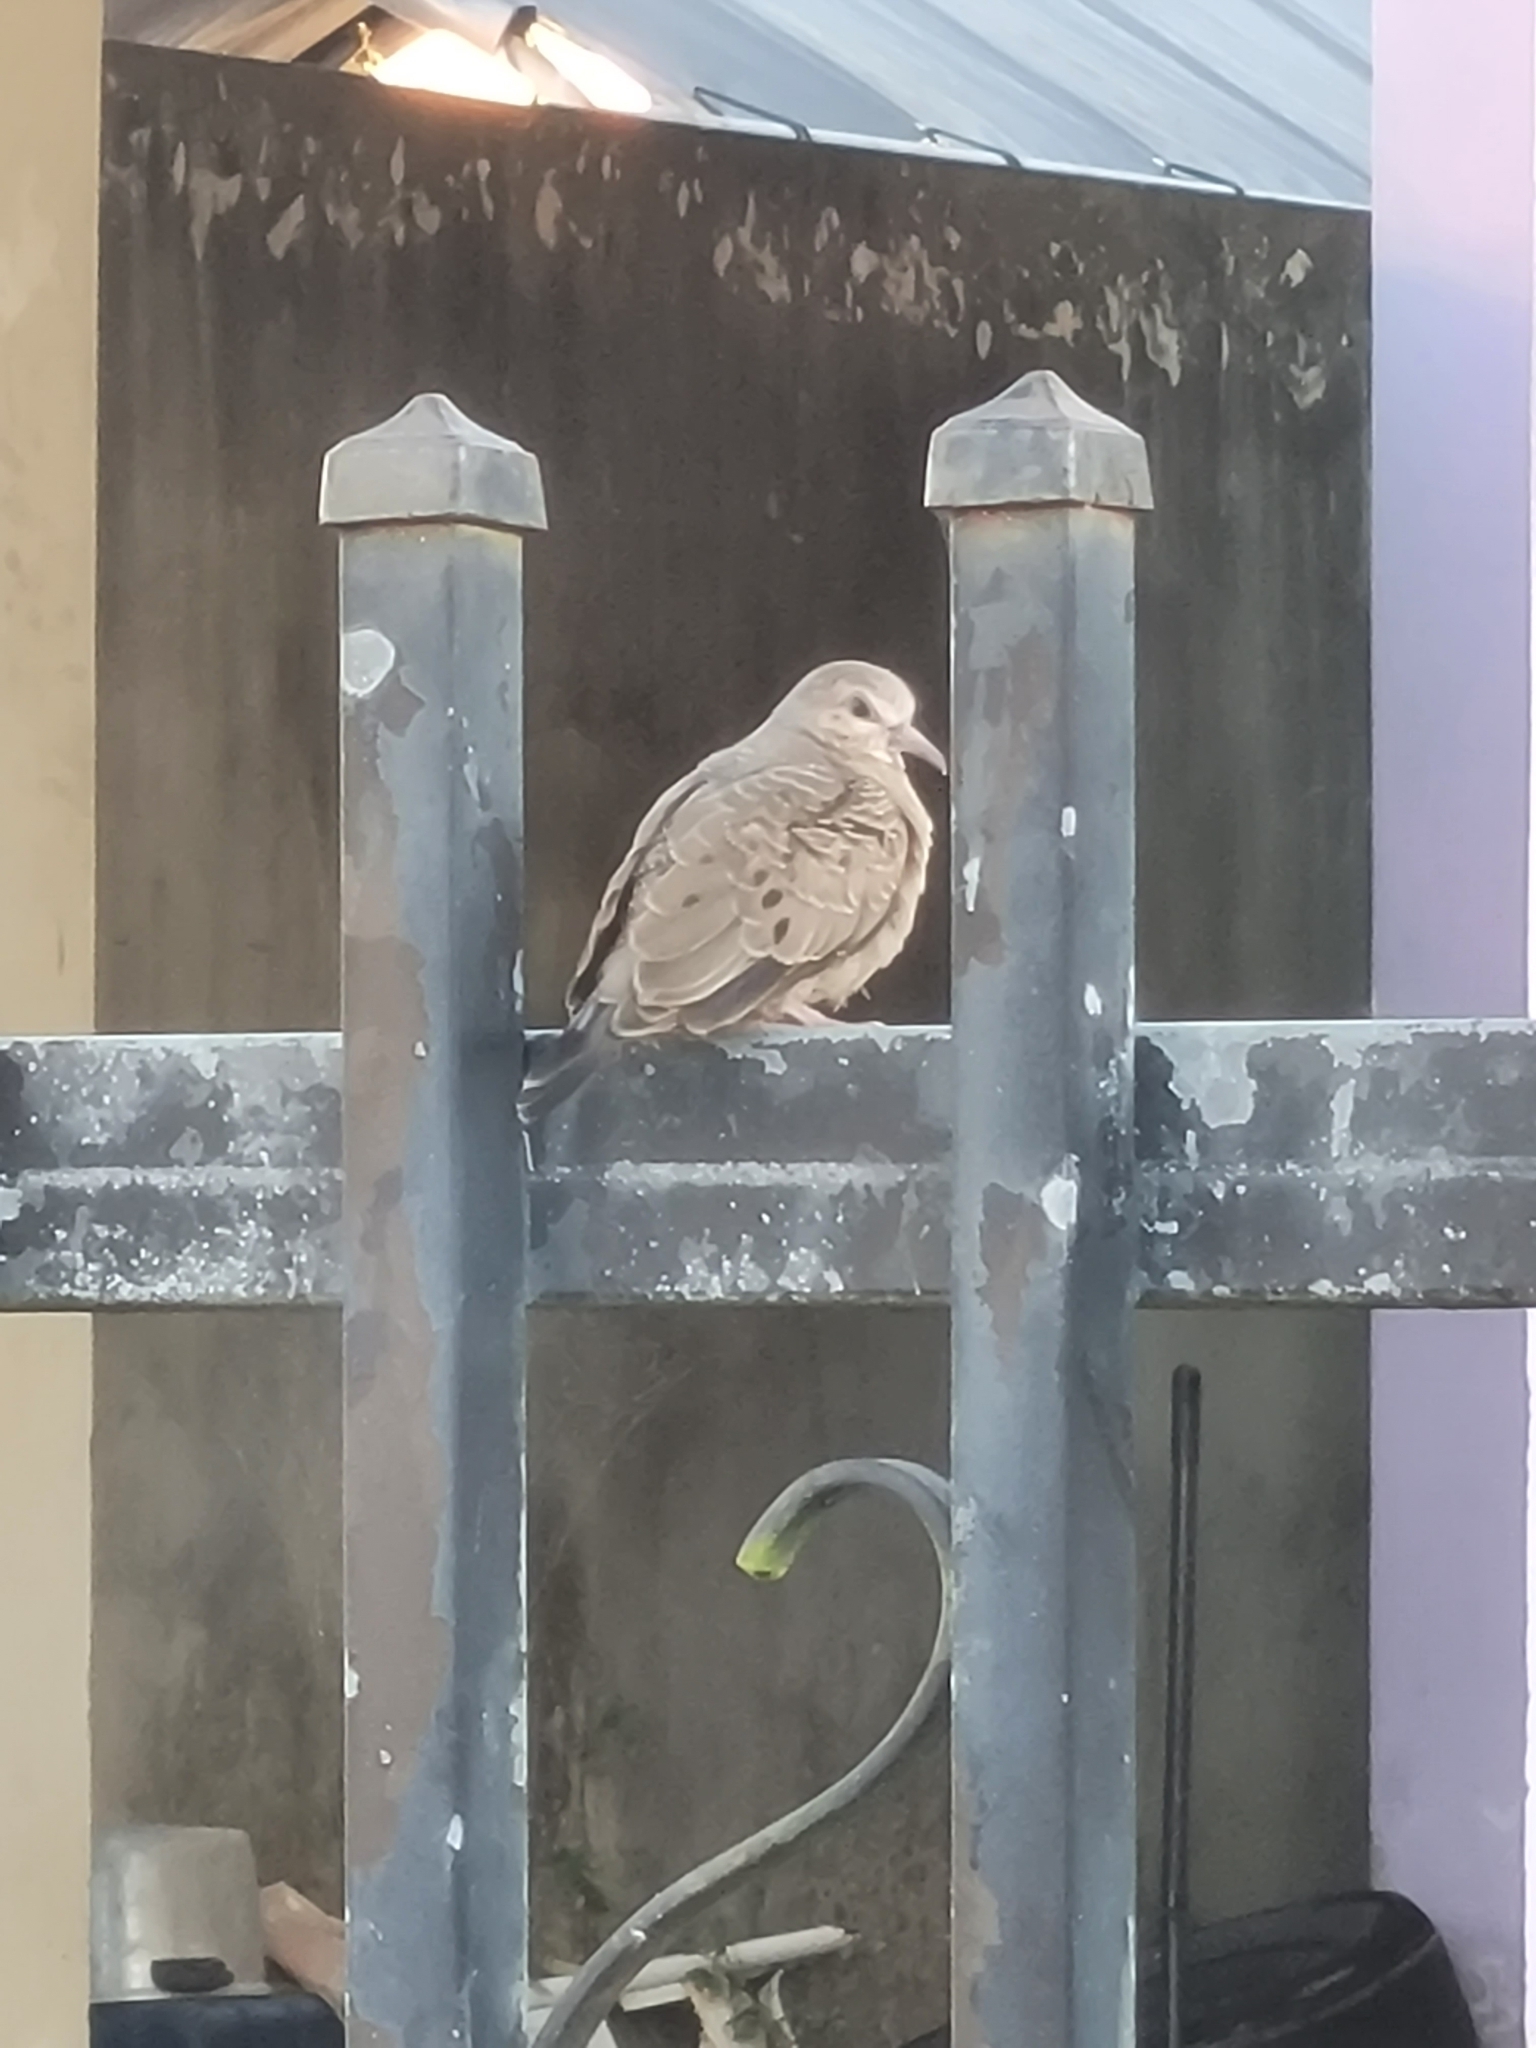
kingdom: Animalia
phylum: Chordata
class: Aves
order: Columbiformes
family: Columbidae
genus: Columbina
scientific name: Columbina passerina
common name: Common ground-dove
